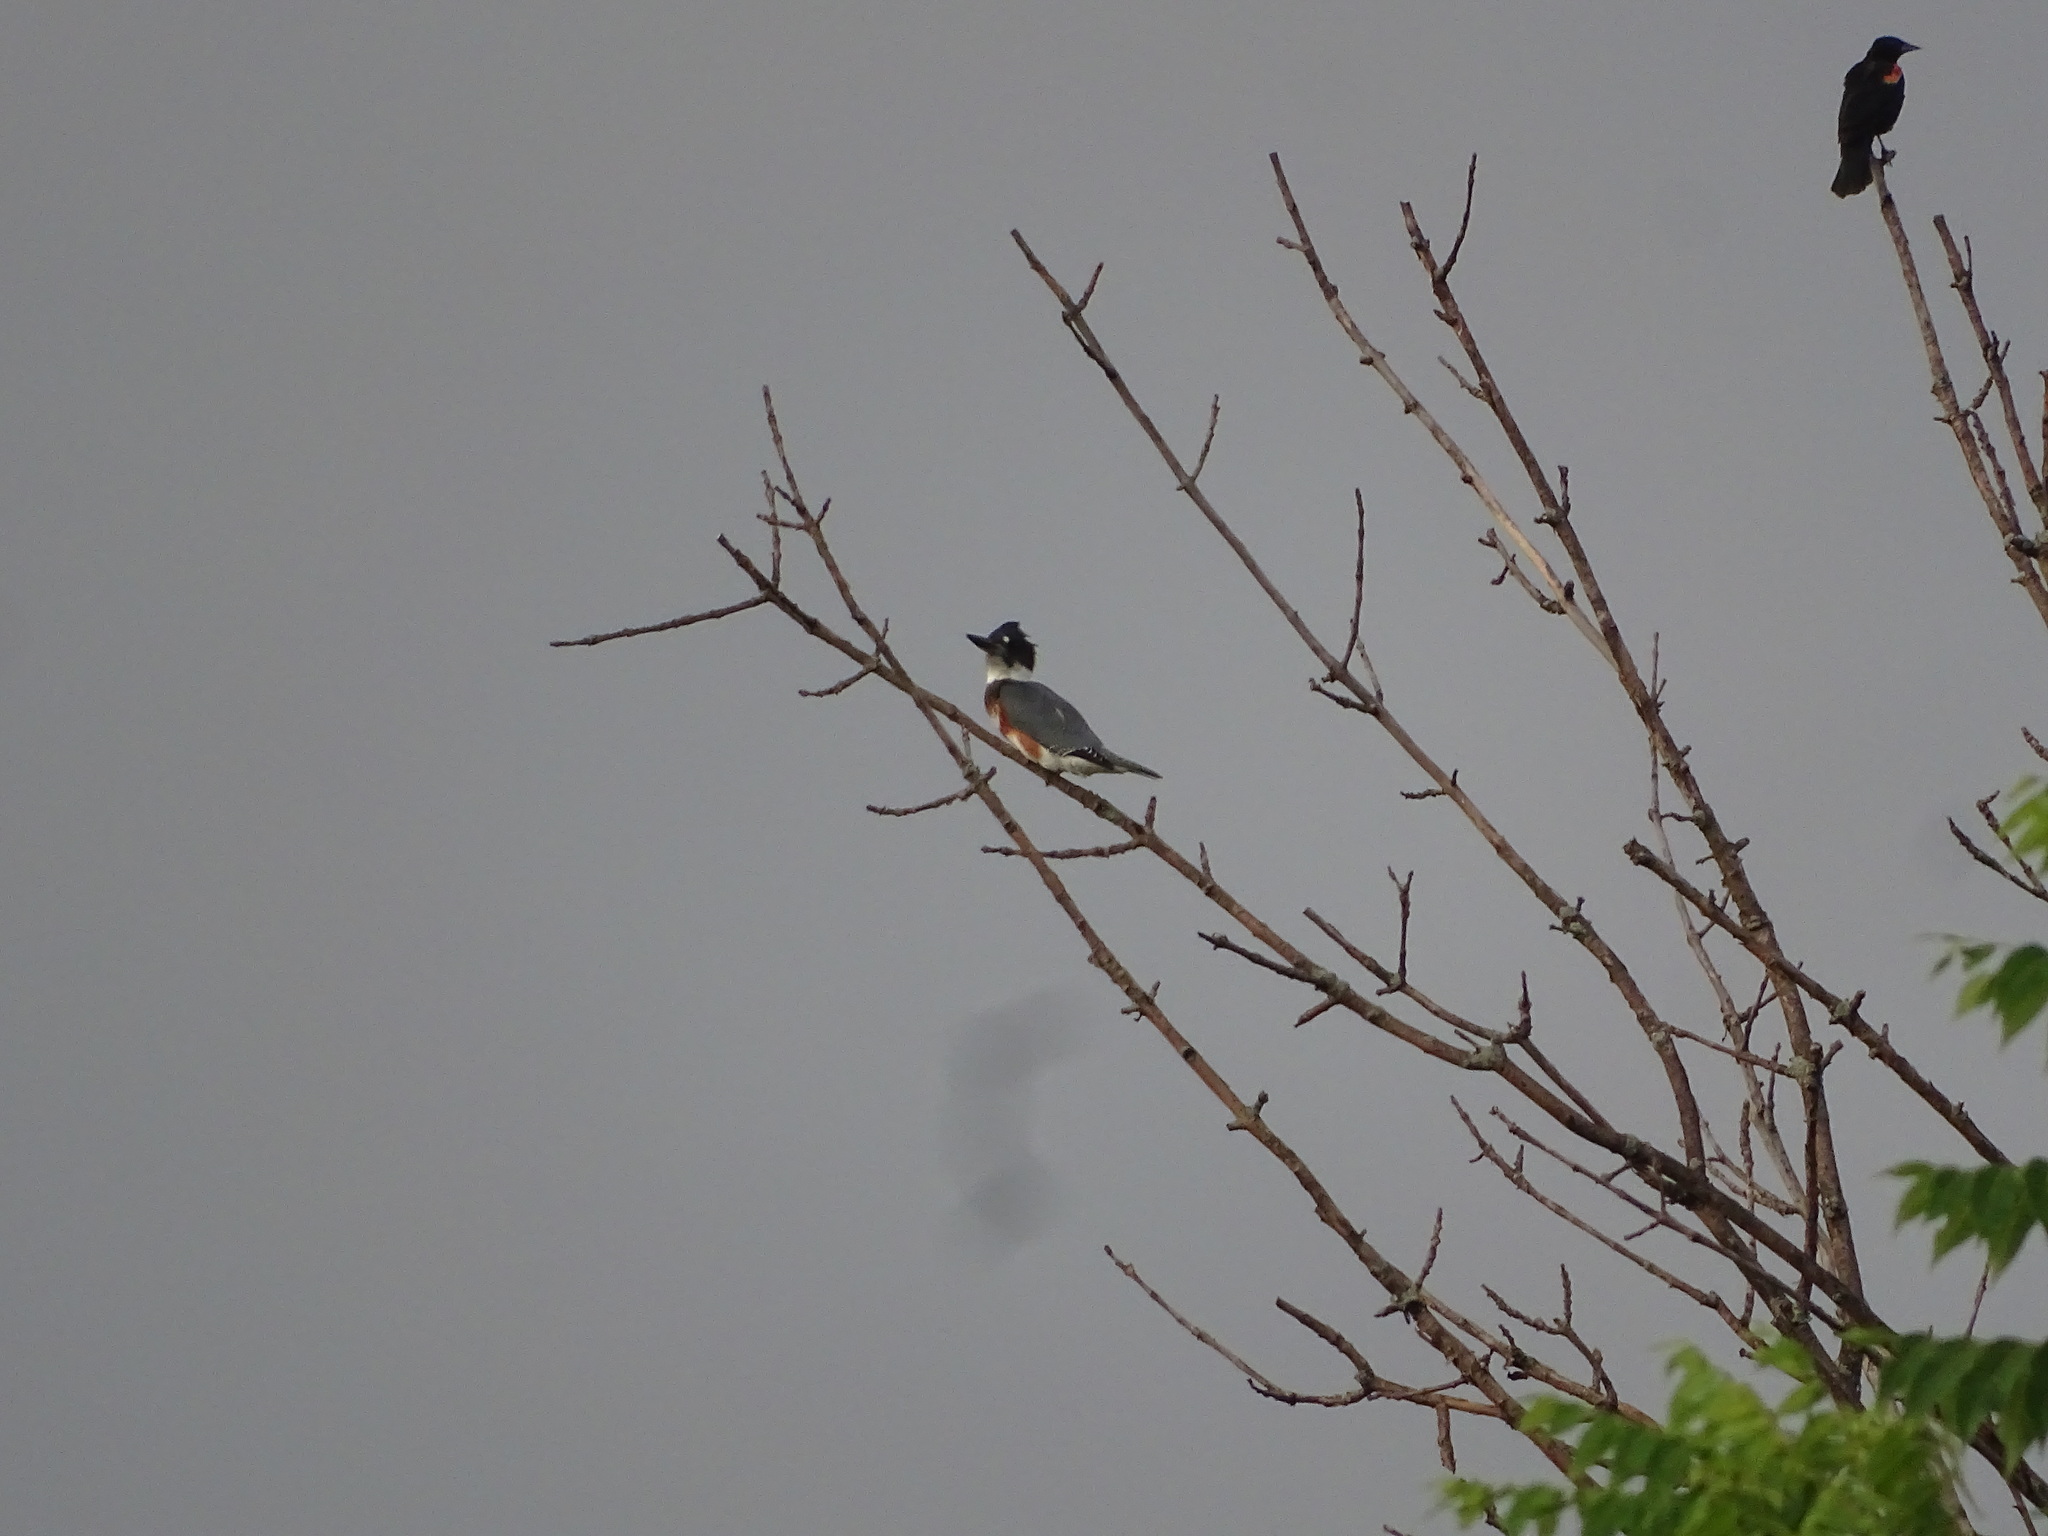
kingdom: Animalia
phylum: Chordata
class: Aves
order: Coraciiformes
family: Alcedinidae
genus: Megaceryle
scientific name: Megaceryle alcyon
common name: Belted kingfisher
